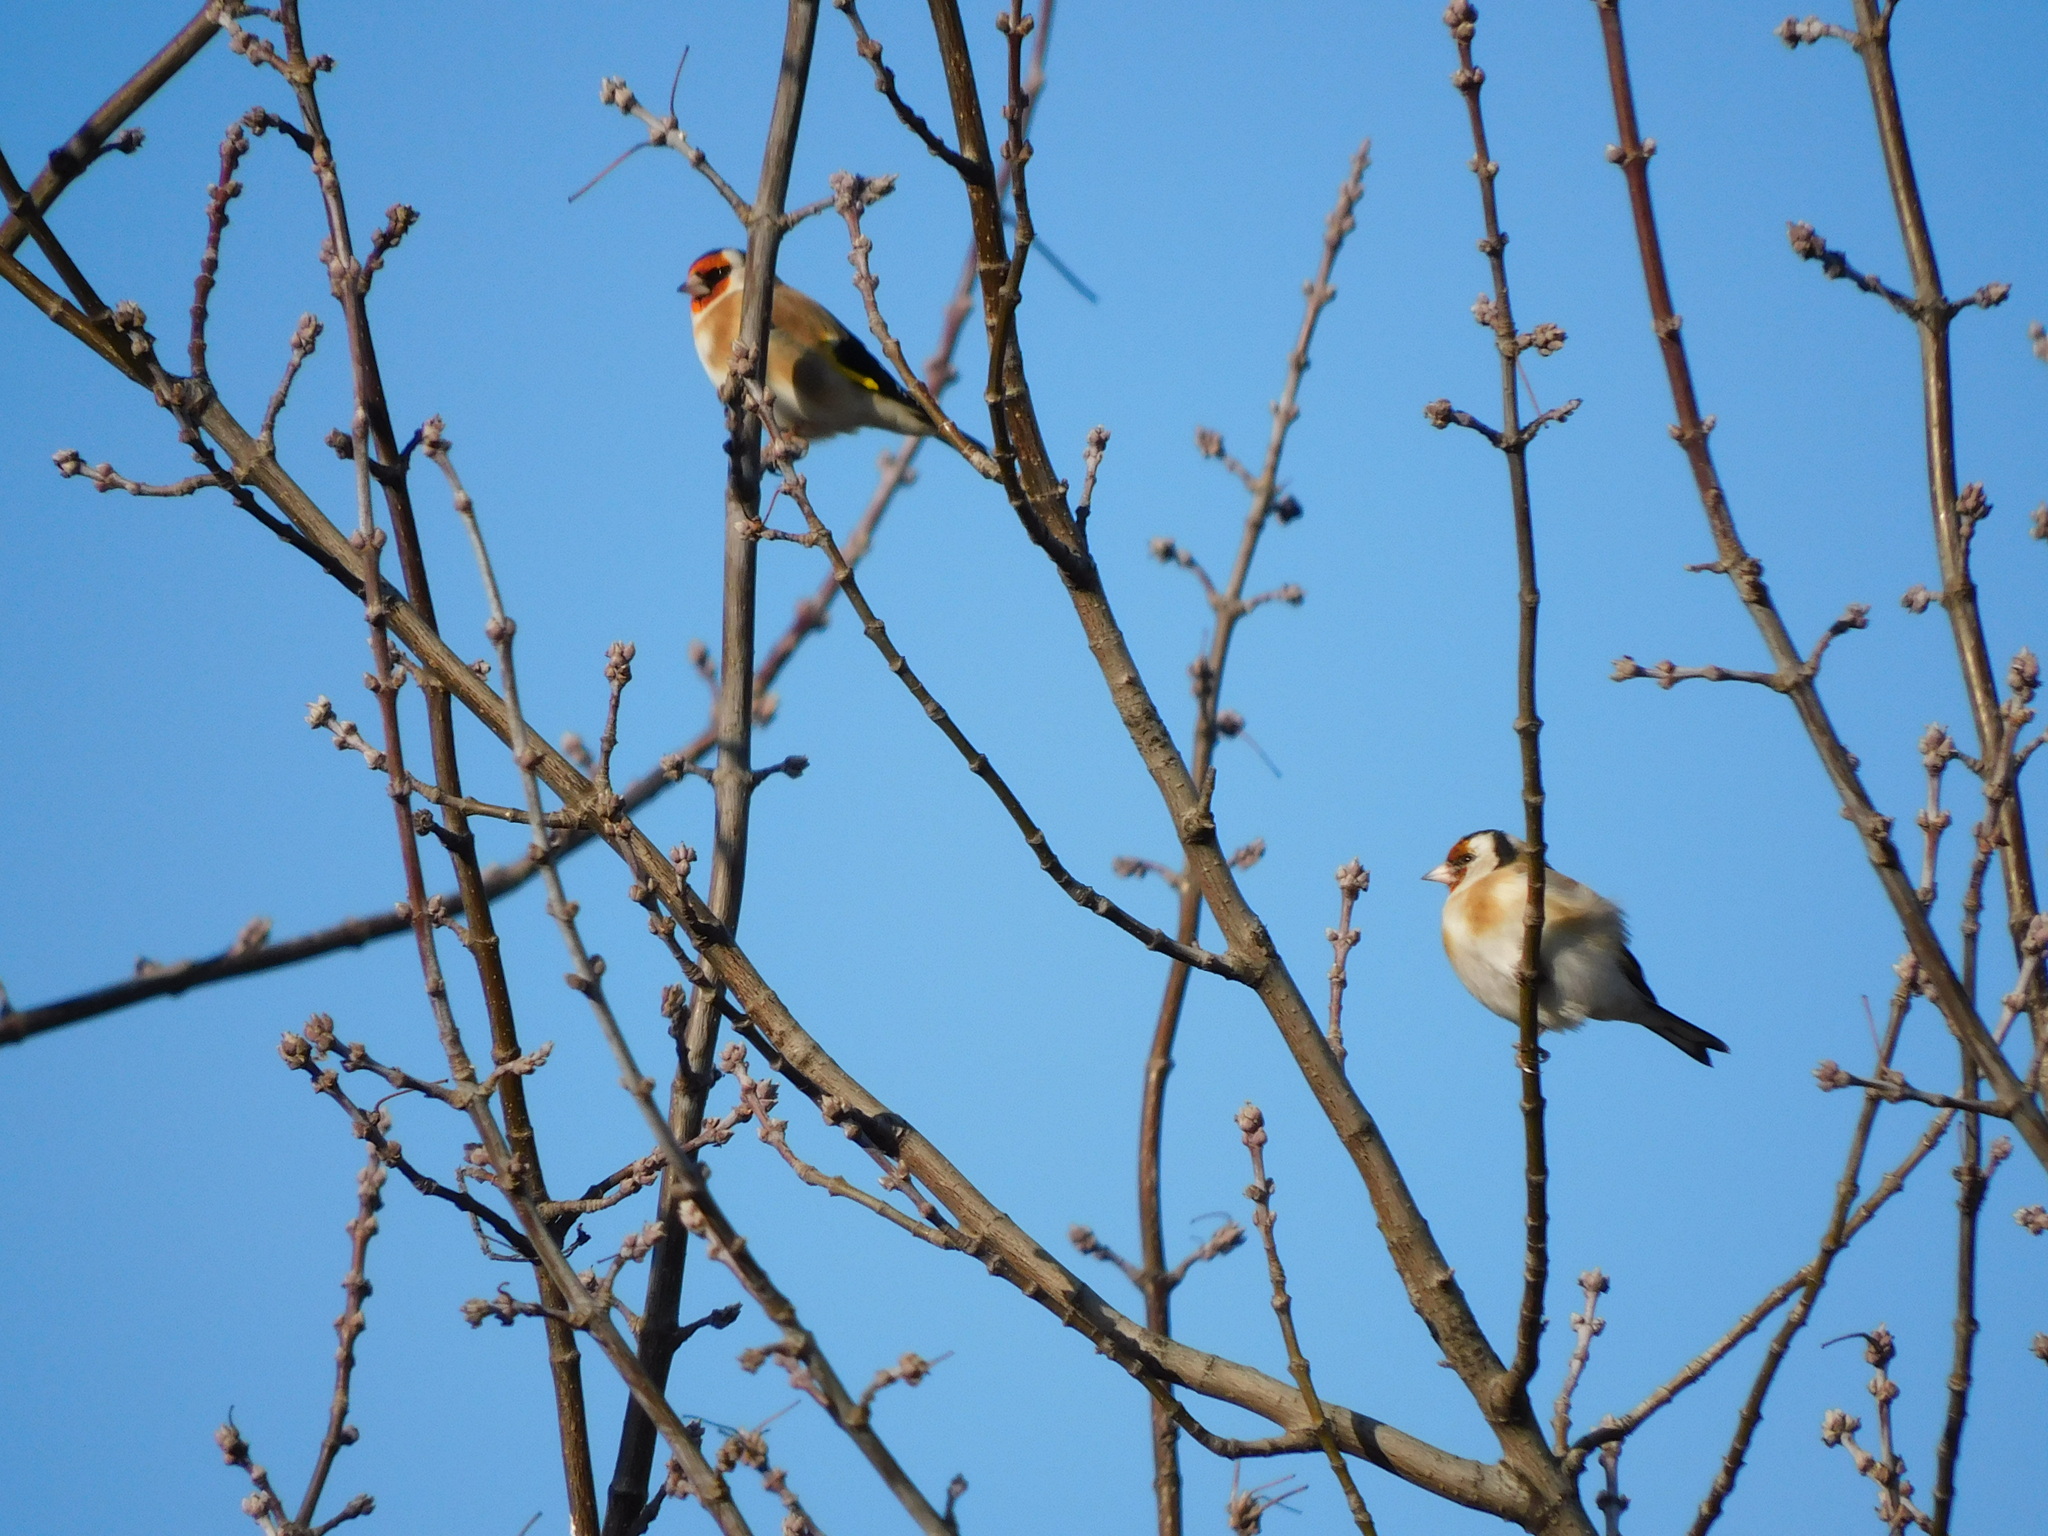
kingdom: Animalia
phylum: Chordata
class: Aves
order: Passeriformes
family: Fringillidae
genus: Carduelis
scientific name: Carduelis carduelis
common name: European goldfinch
